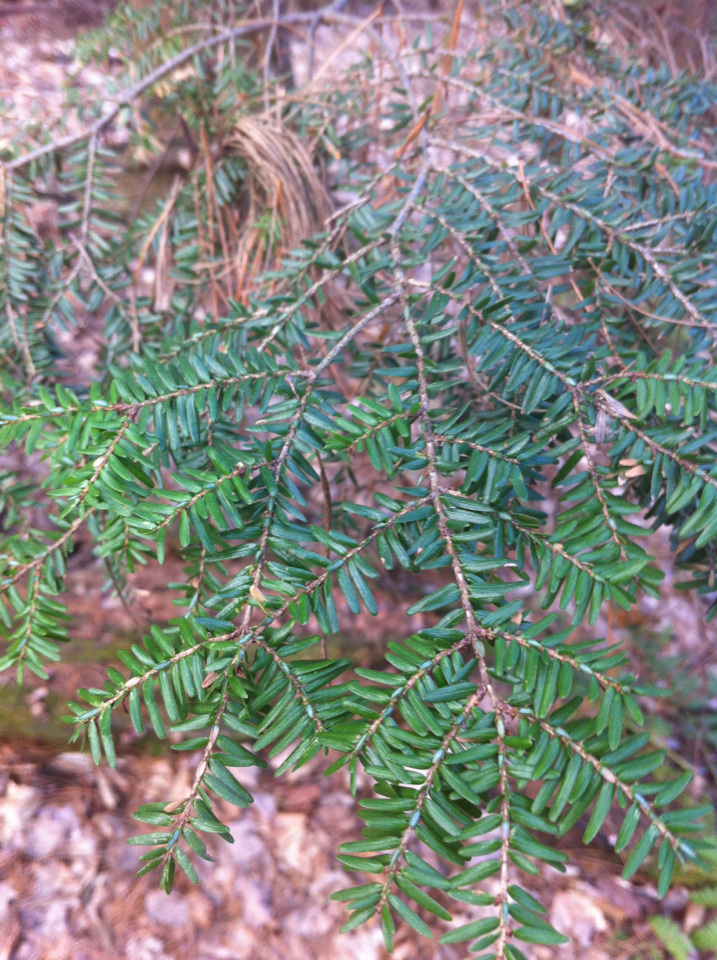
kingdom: Plantae
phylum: Tracheophyta
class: Pinopsida
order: Pinales
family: Pinaceae
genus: Tsuga
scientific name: Tsuga canadensis
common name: Eastern hemlock
